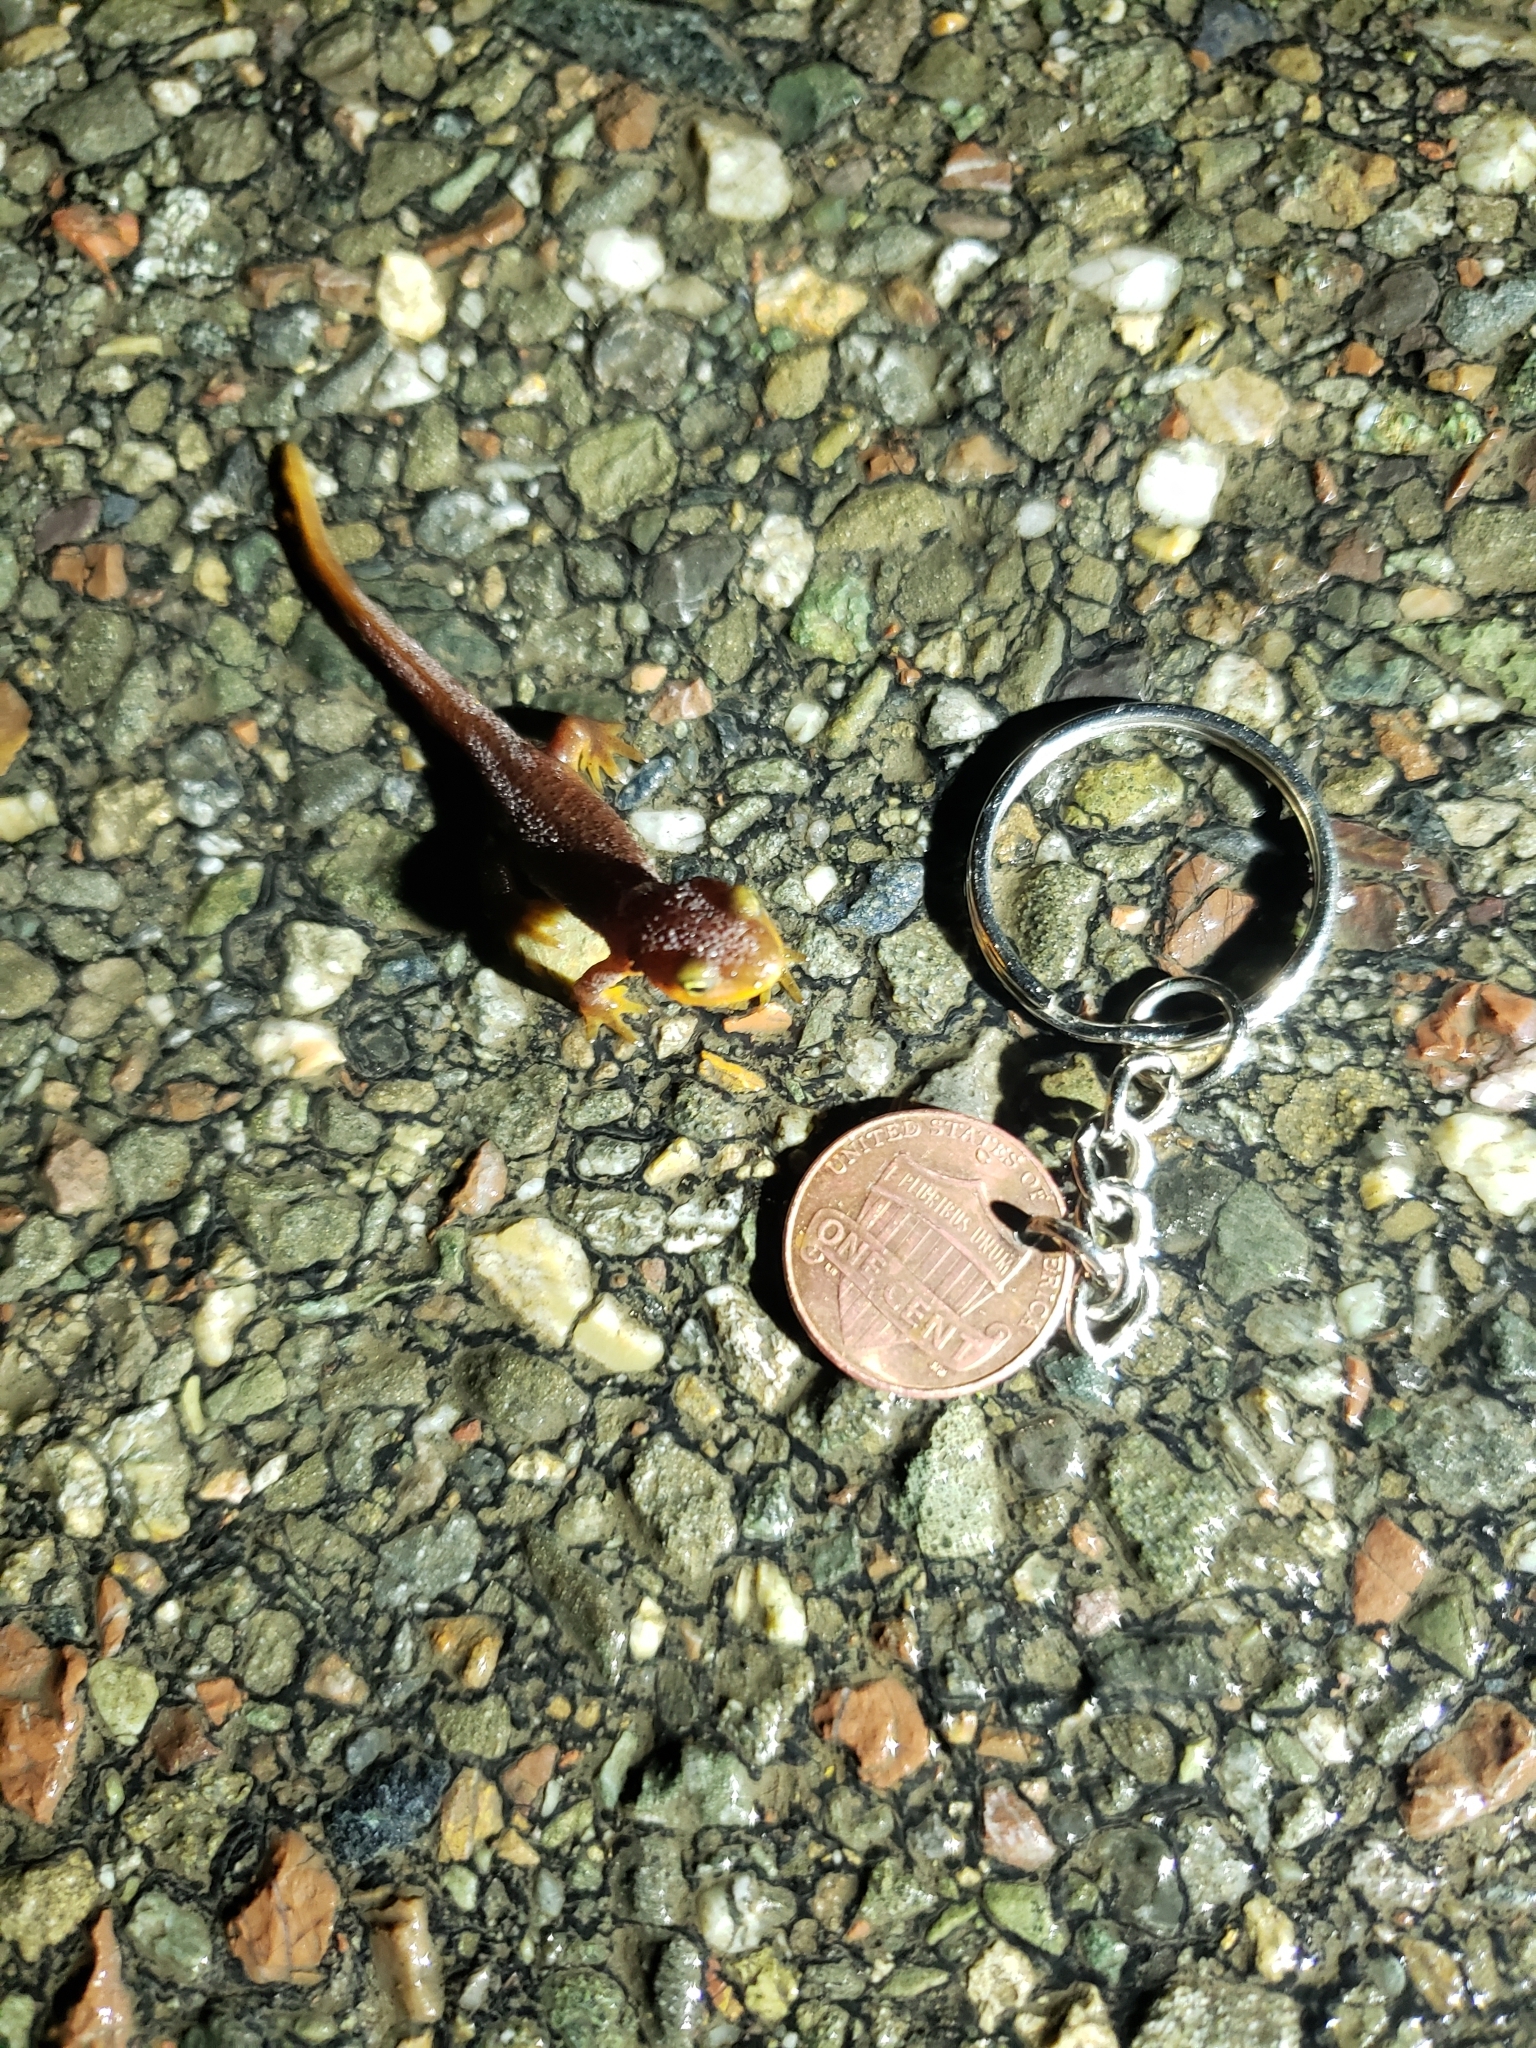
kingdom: Animalia
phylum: Chordata
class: Amphibia
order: Caudata
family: Salamandridae
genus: Taricha
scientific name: Taricha torosa
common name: California newt
